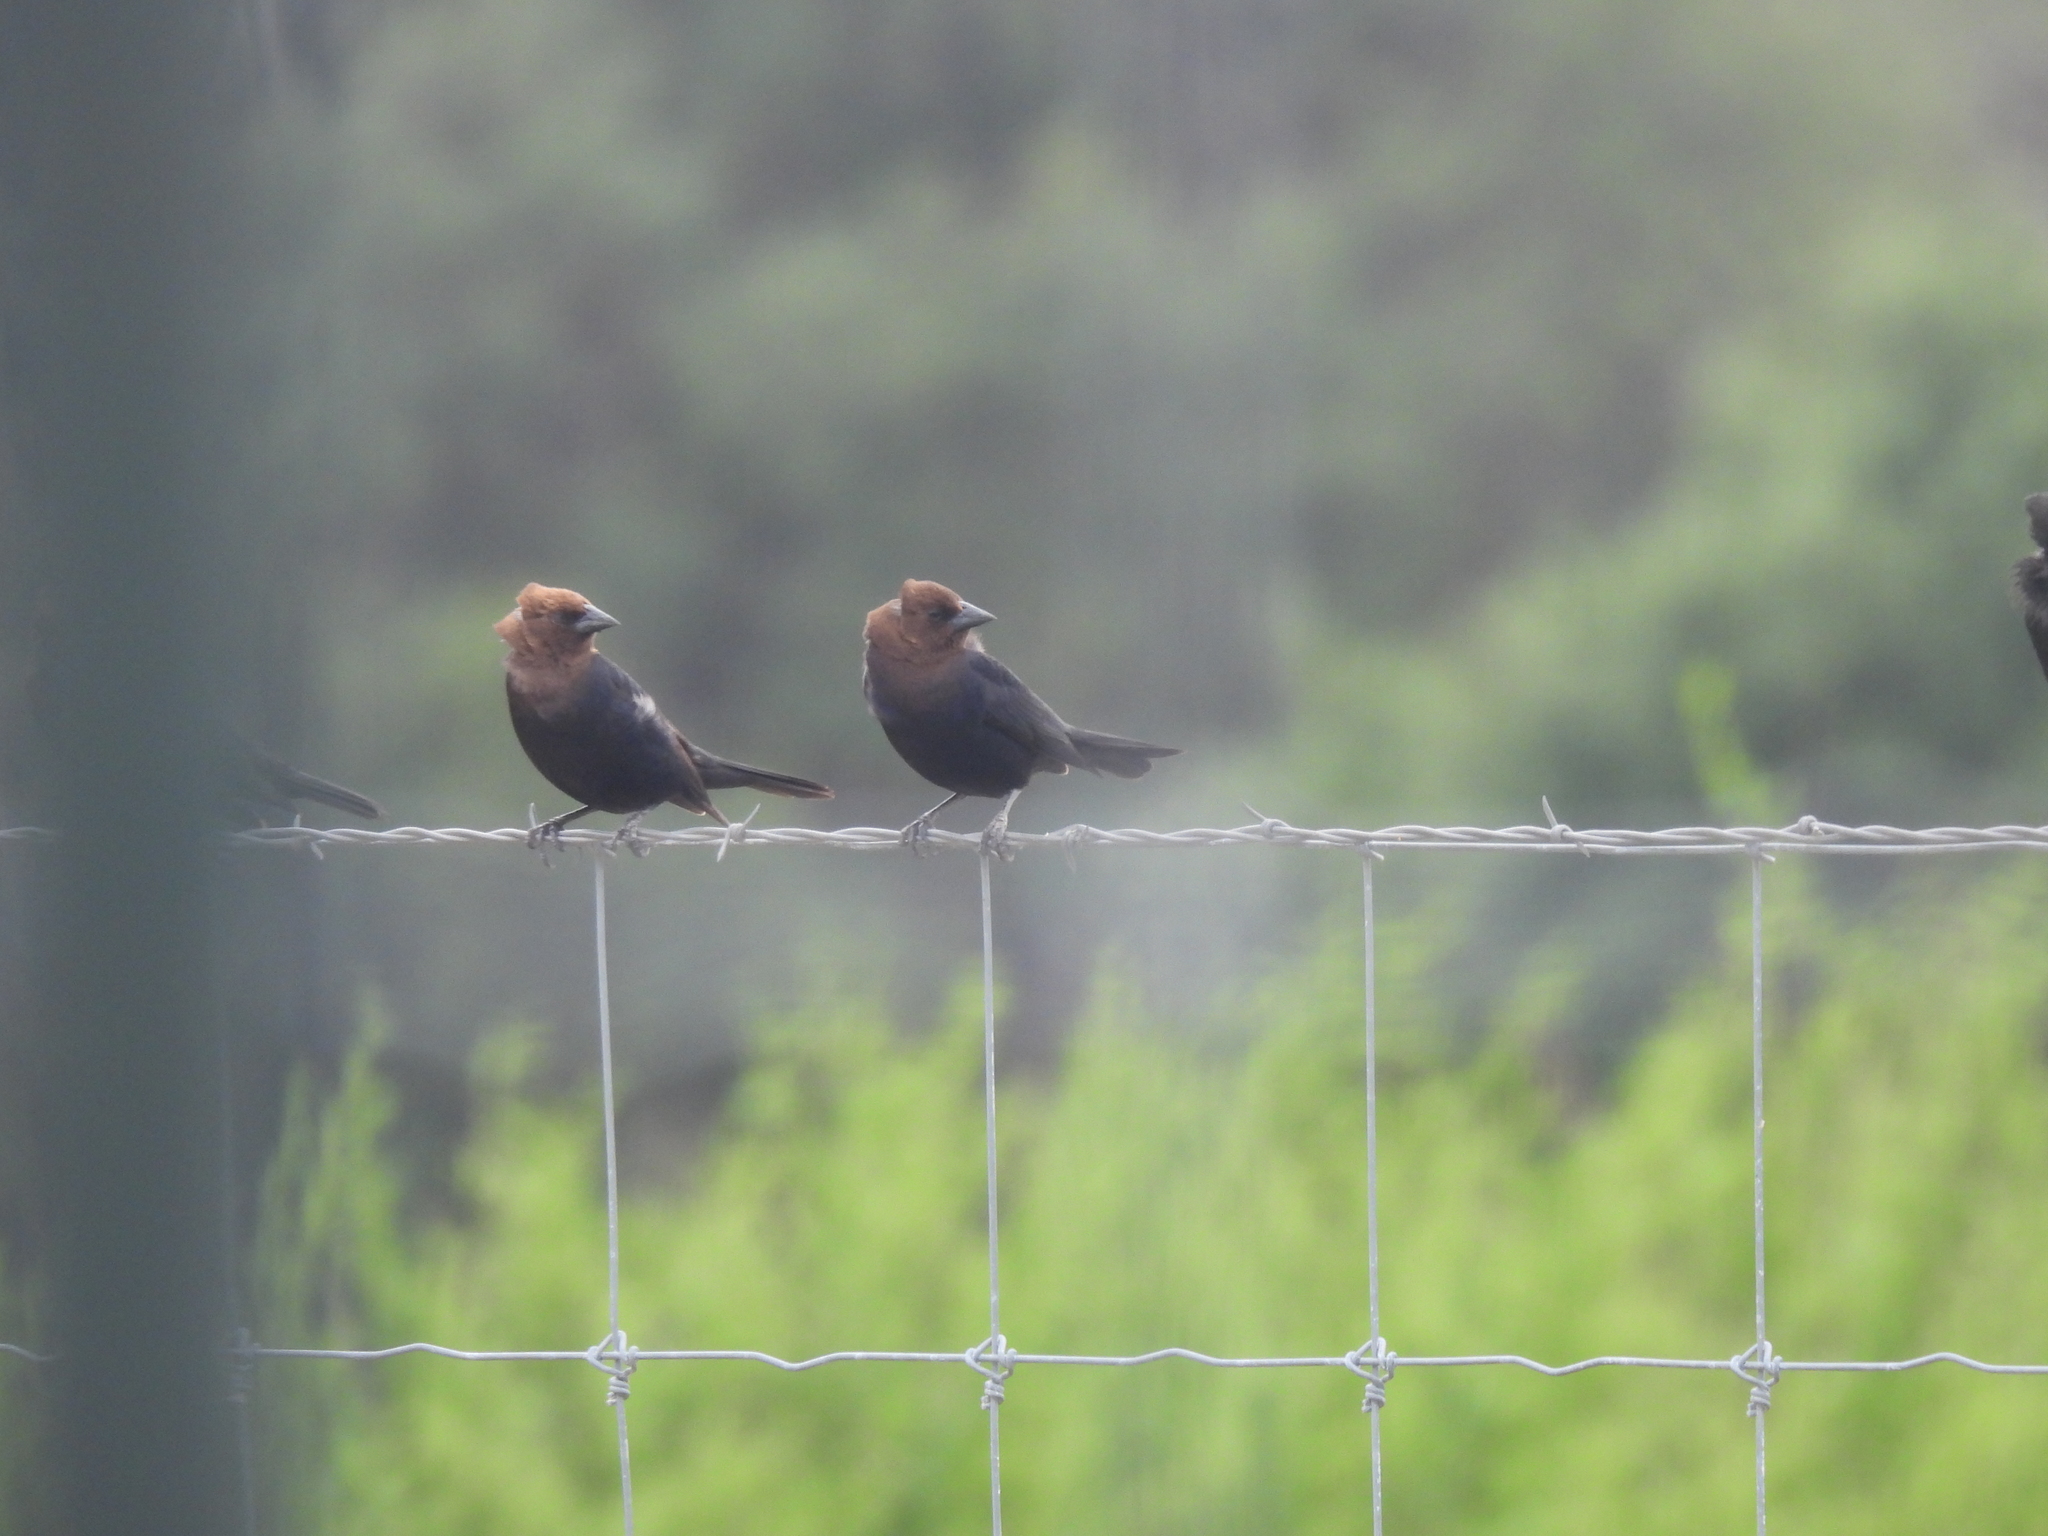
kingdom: Animalia
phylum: Chordata
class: Aves
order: Passeriformes
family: Icteridae
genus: Molothrus
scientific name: Molothrus ater
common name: Brown-headed cowbird
